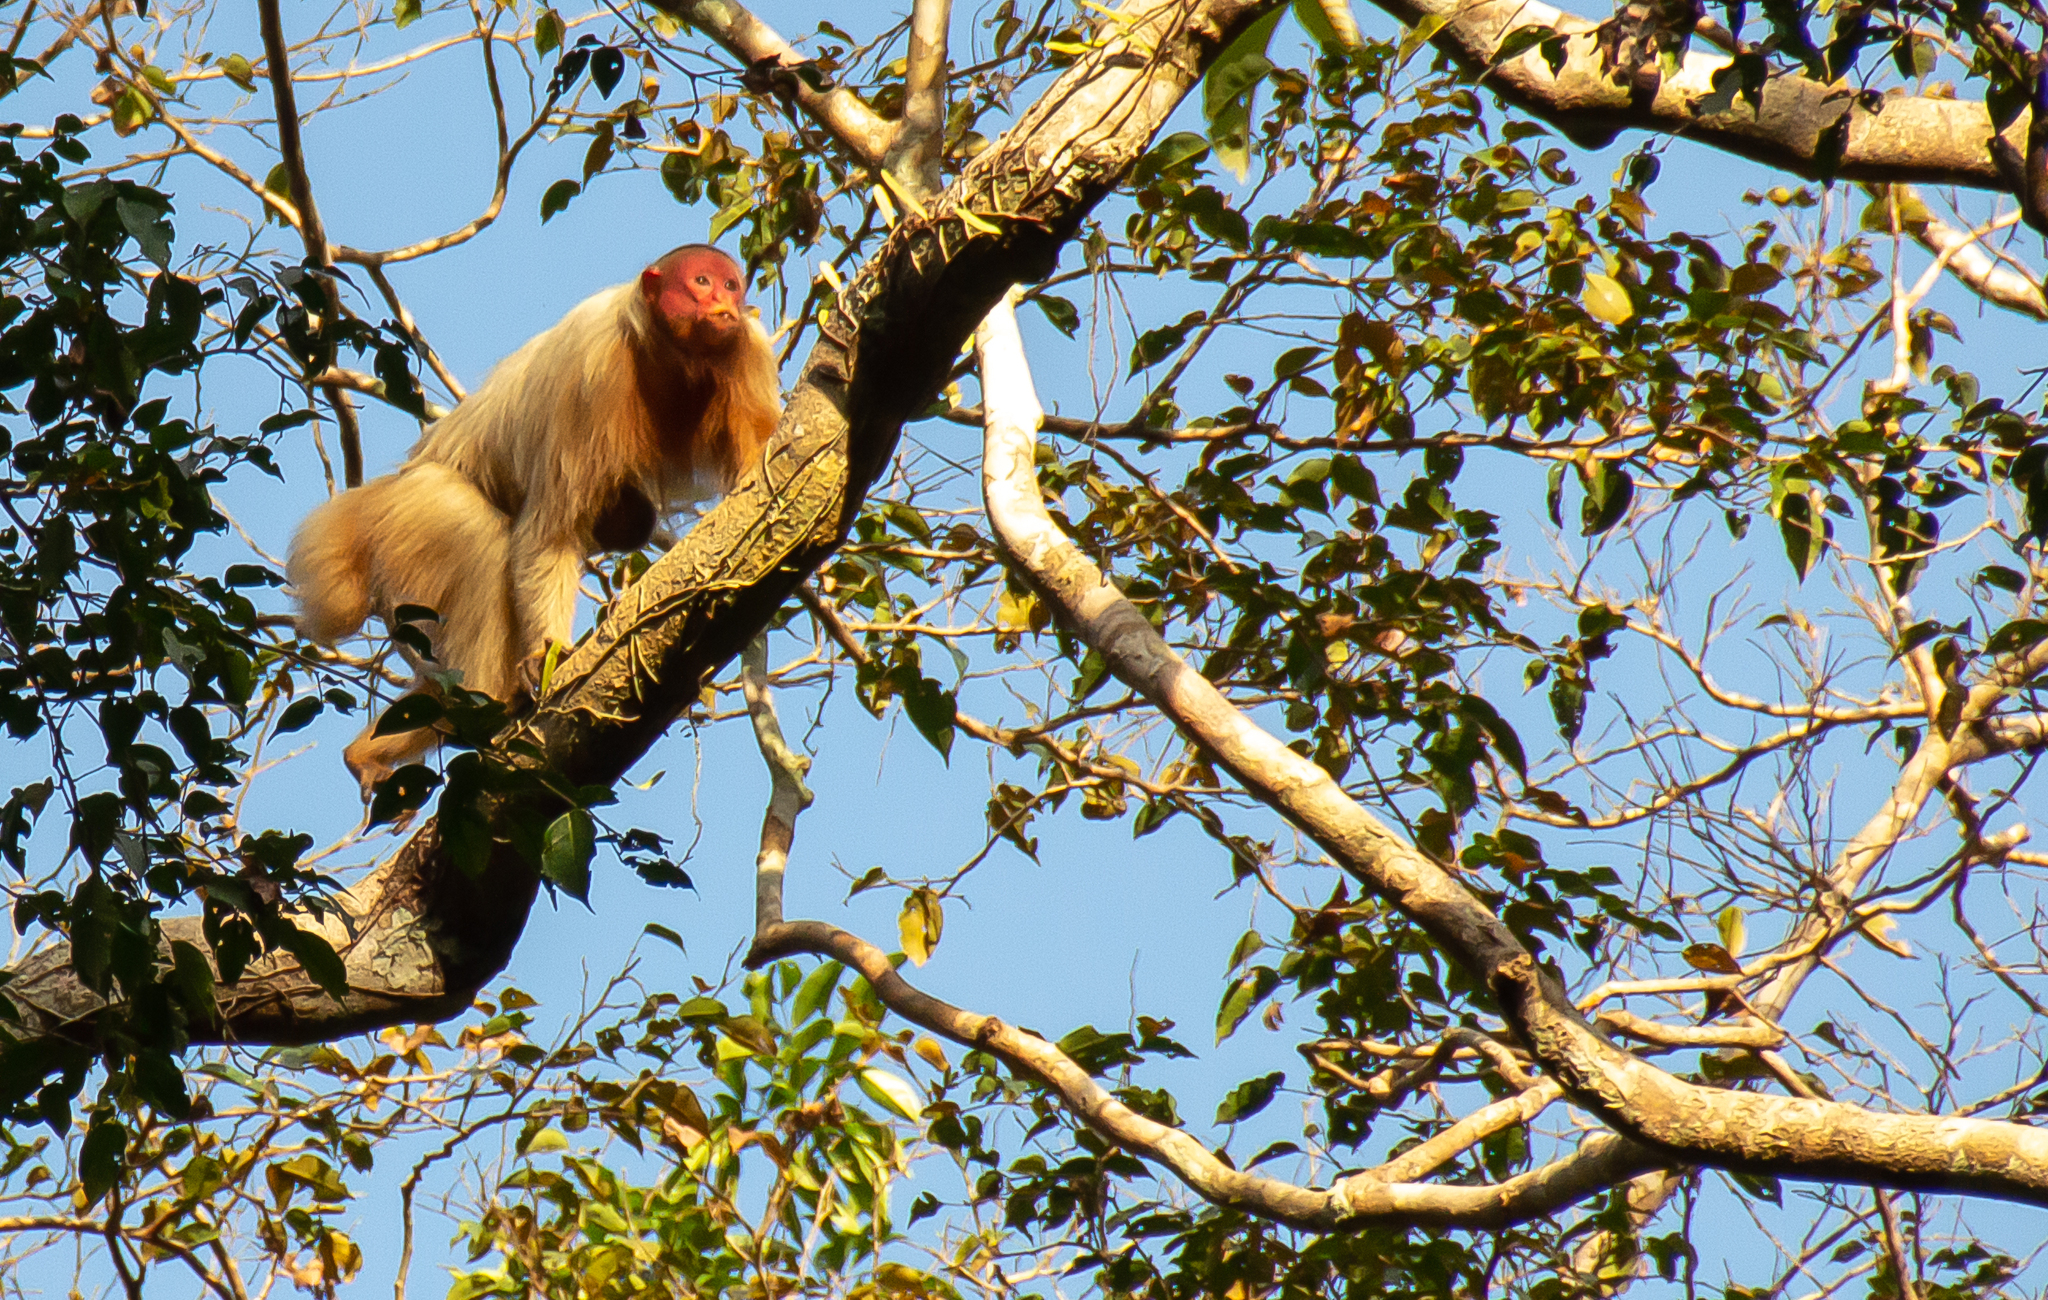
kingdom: Animalia
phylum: Chordata
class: Mammalia
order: Primates
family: Pitheciidae
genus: Cacajao
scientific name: Cacajao calvus
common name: Bald uacari
